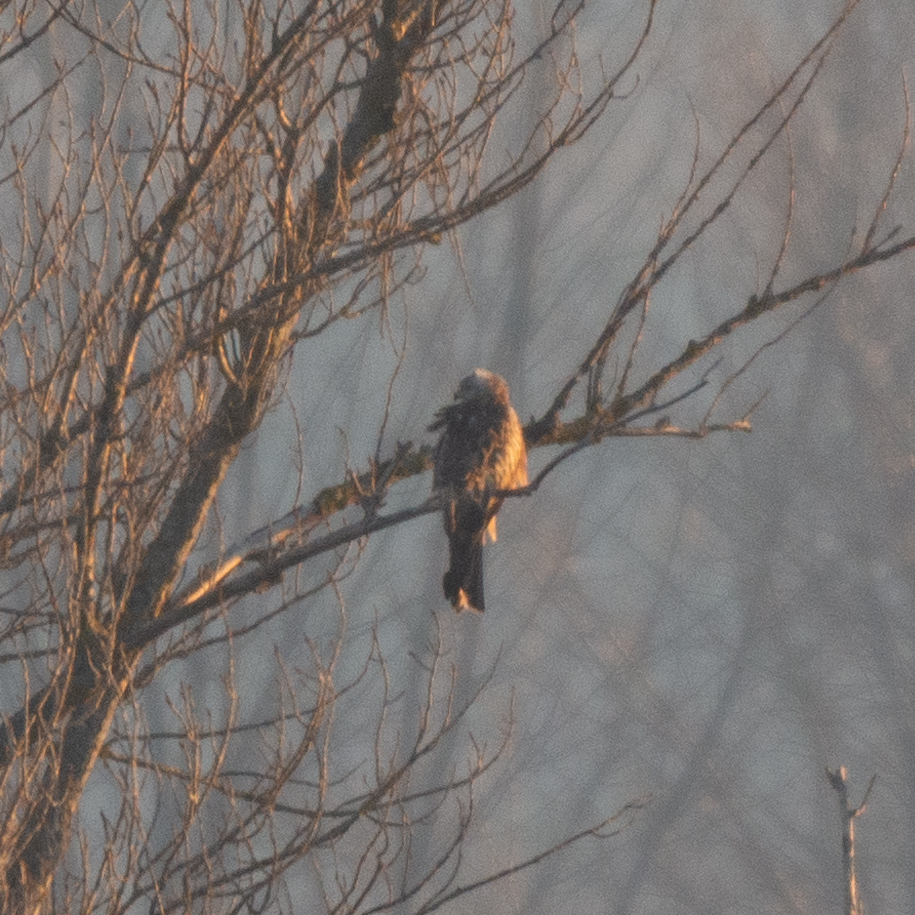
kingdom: Animalia
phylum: Chordata
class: Aves
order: Accipitriformes
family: Accipitridae
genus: Milvus
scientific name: Milvus milvus
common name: Red kite
